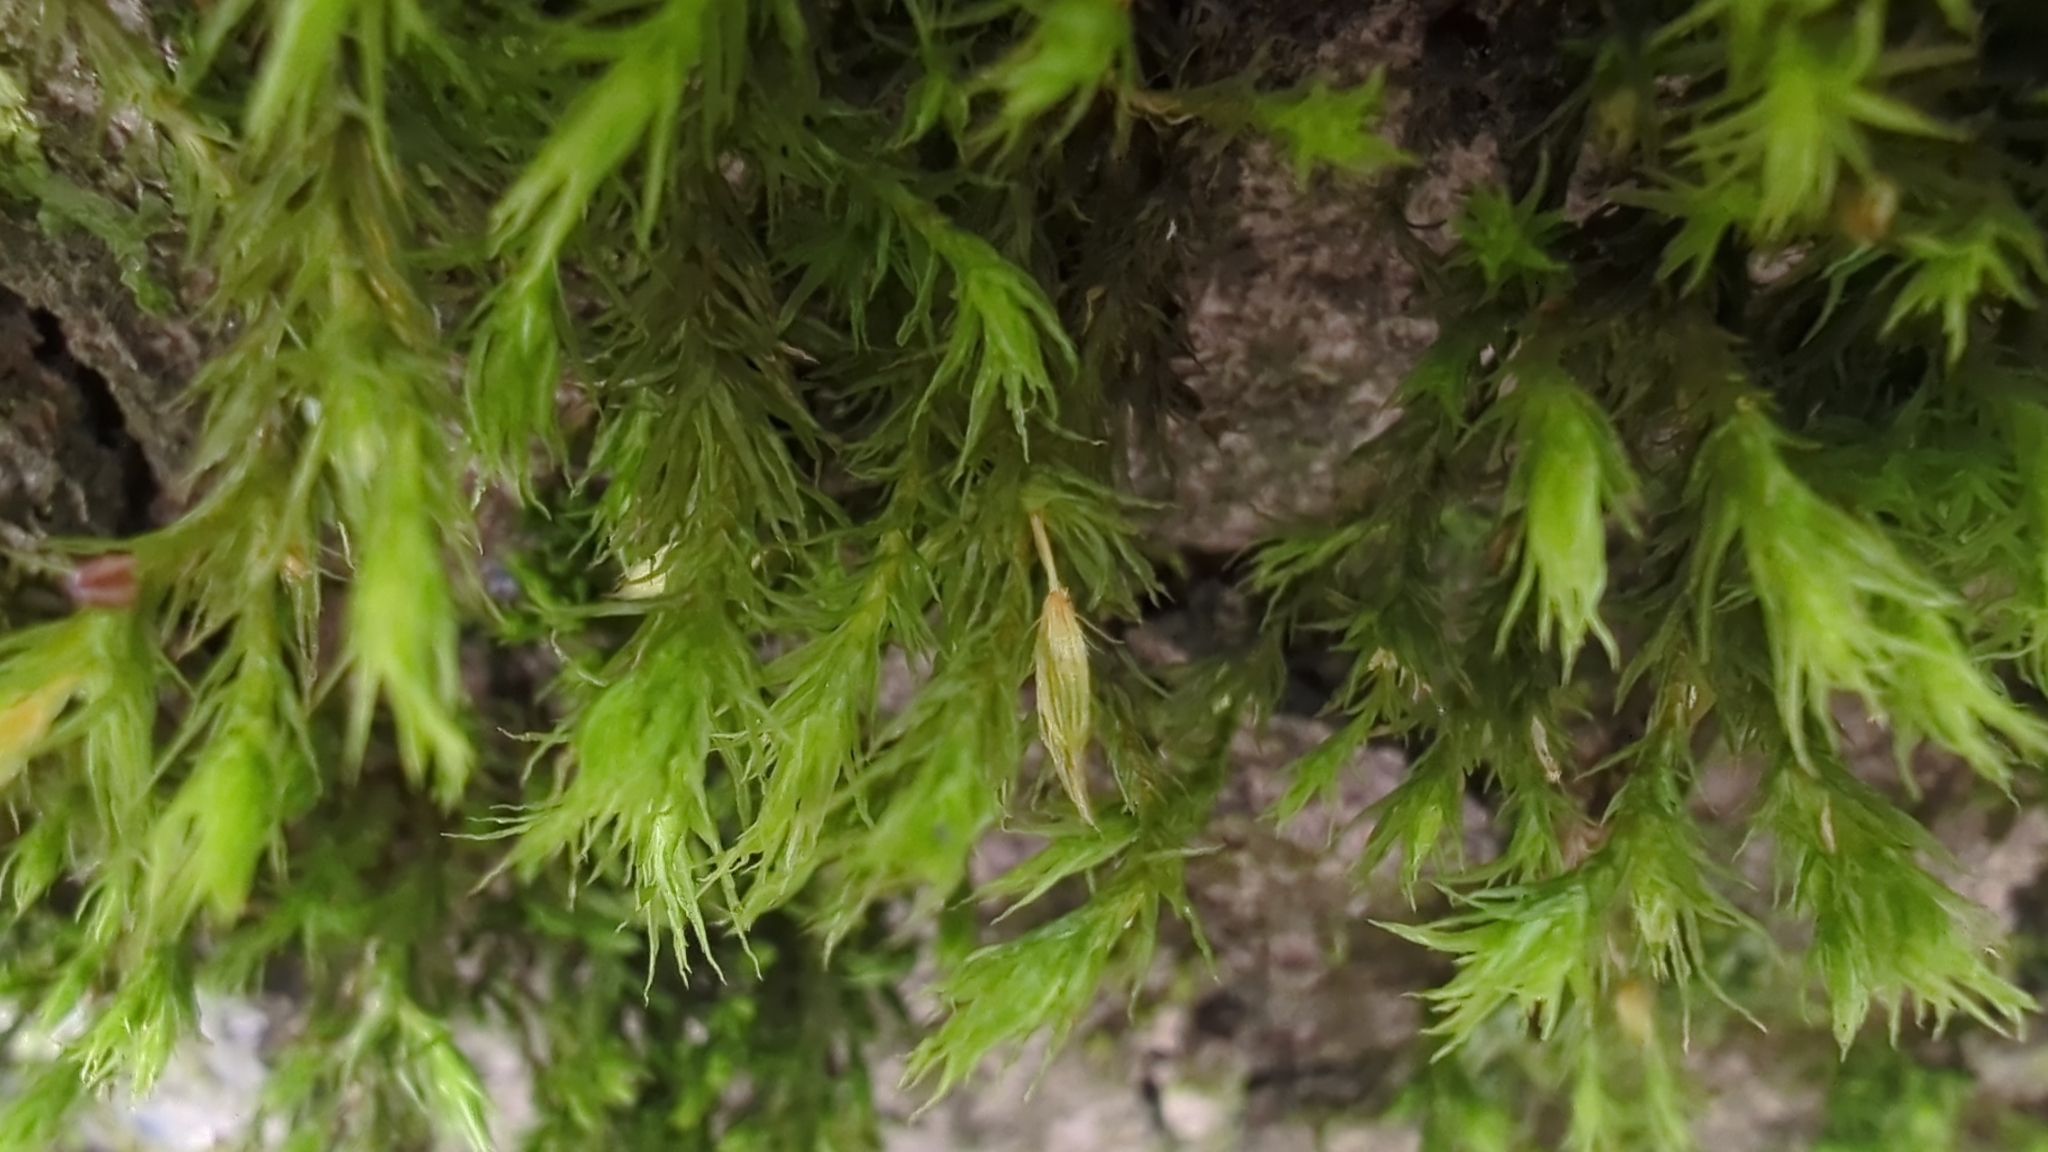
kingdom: Plantae
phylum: Bryophyta
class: Bryopsida
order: Orthotrichales
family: Orthotrichaceae
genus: Pulvigera
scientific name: Pulvigera pringlei
